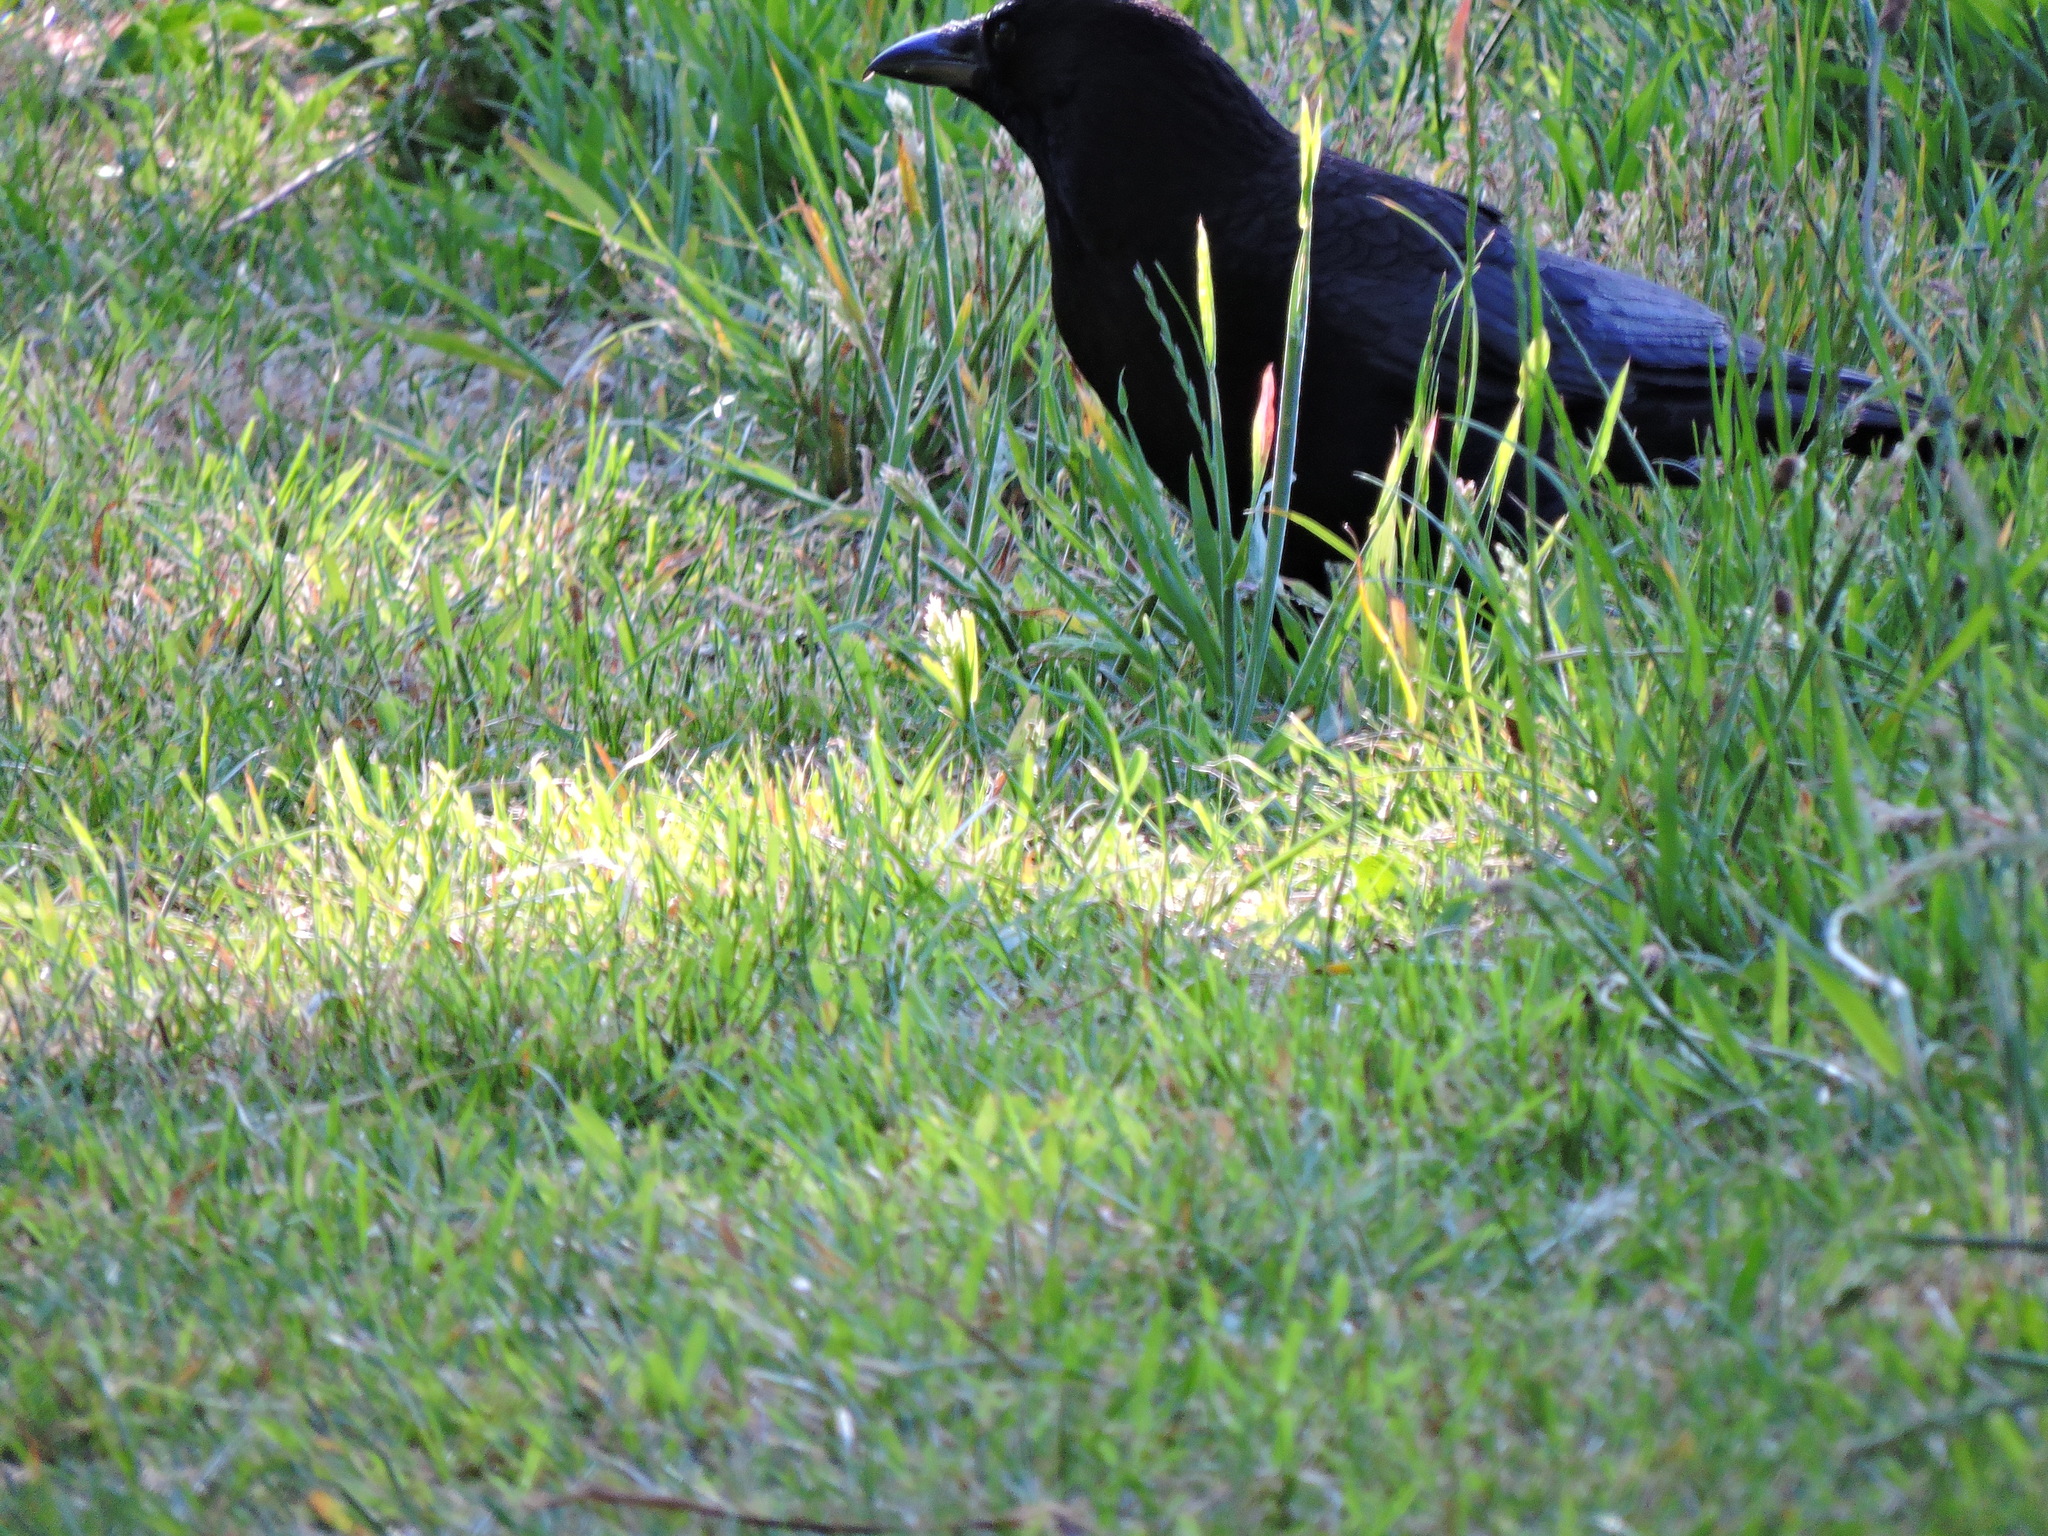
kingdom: Animalia
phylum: Chordata
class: Aves
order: Passeriformes
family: Corvidae
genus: Corvus
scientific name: Corvus corone
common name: Carrion crow
